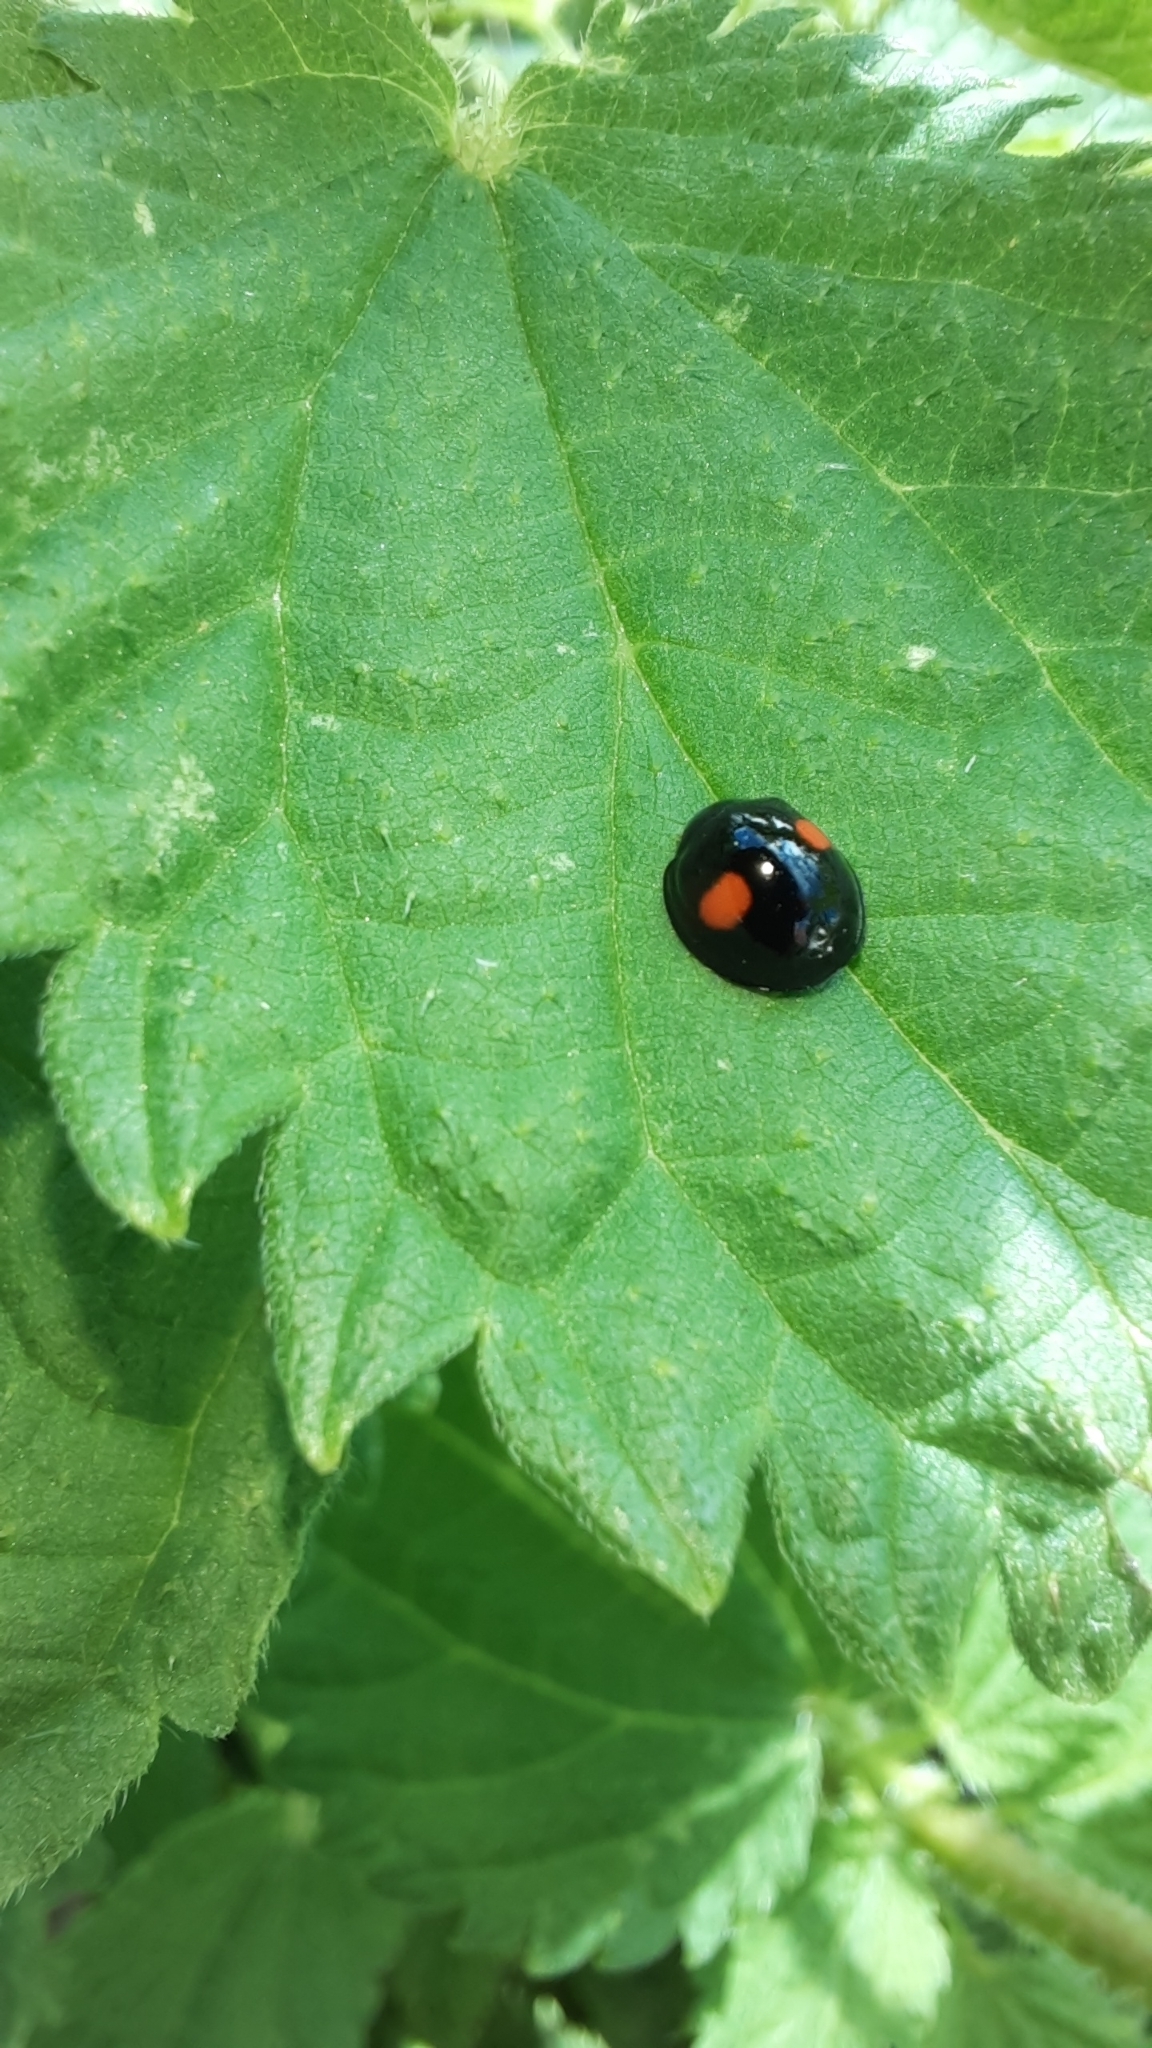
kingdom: Animalia
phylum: Arthropoda
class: Insecta
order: Coleoptera
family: Coccinellidae
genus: Chilocorus
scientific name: Chilocorus renipustulatus
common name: Kidney-spot ladybird
